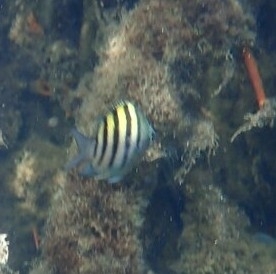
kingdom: Animalia
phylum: Chordata
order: Perciformes
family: Pomacentridae
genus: Abudefduf
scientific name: Abudefduf saxatilis
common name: Sergeant major
